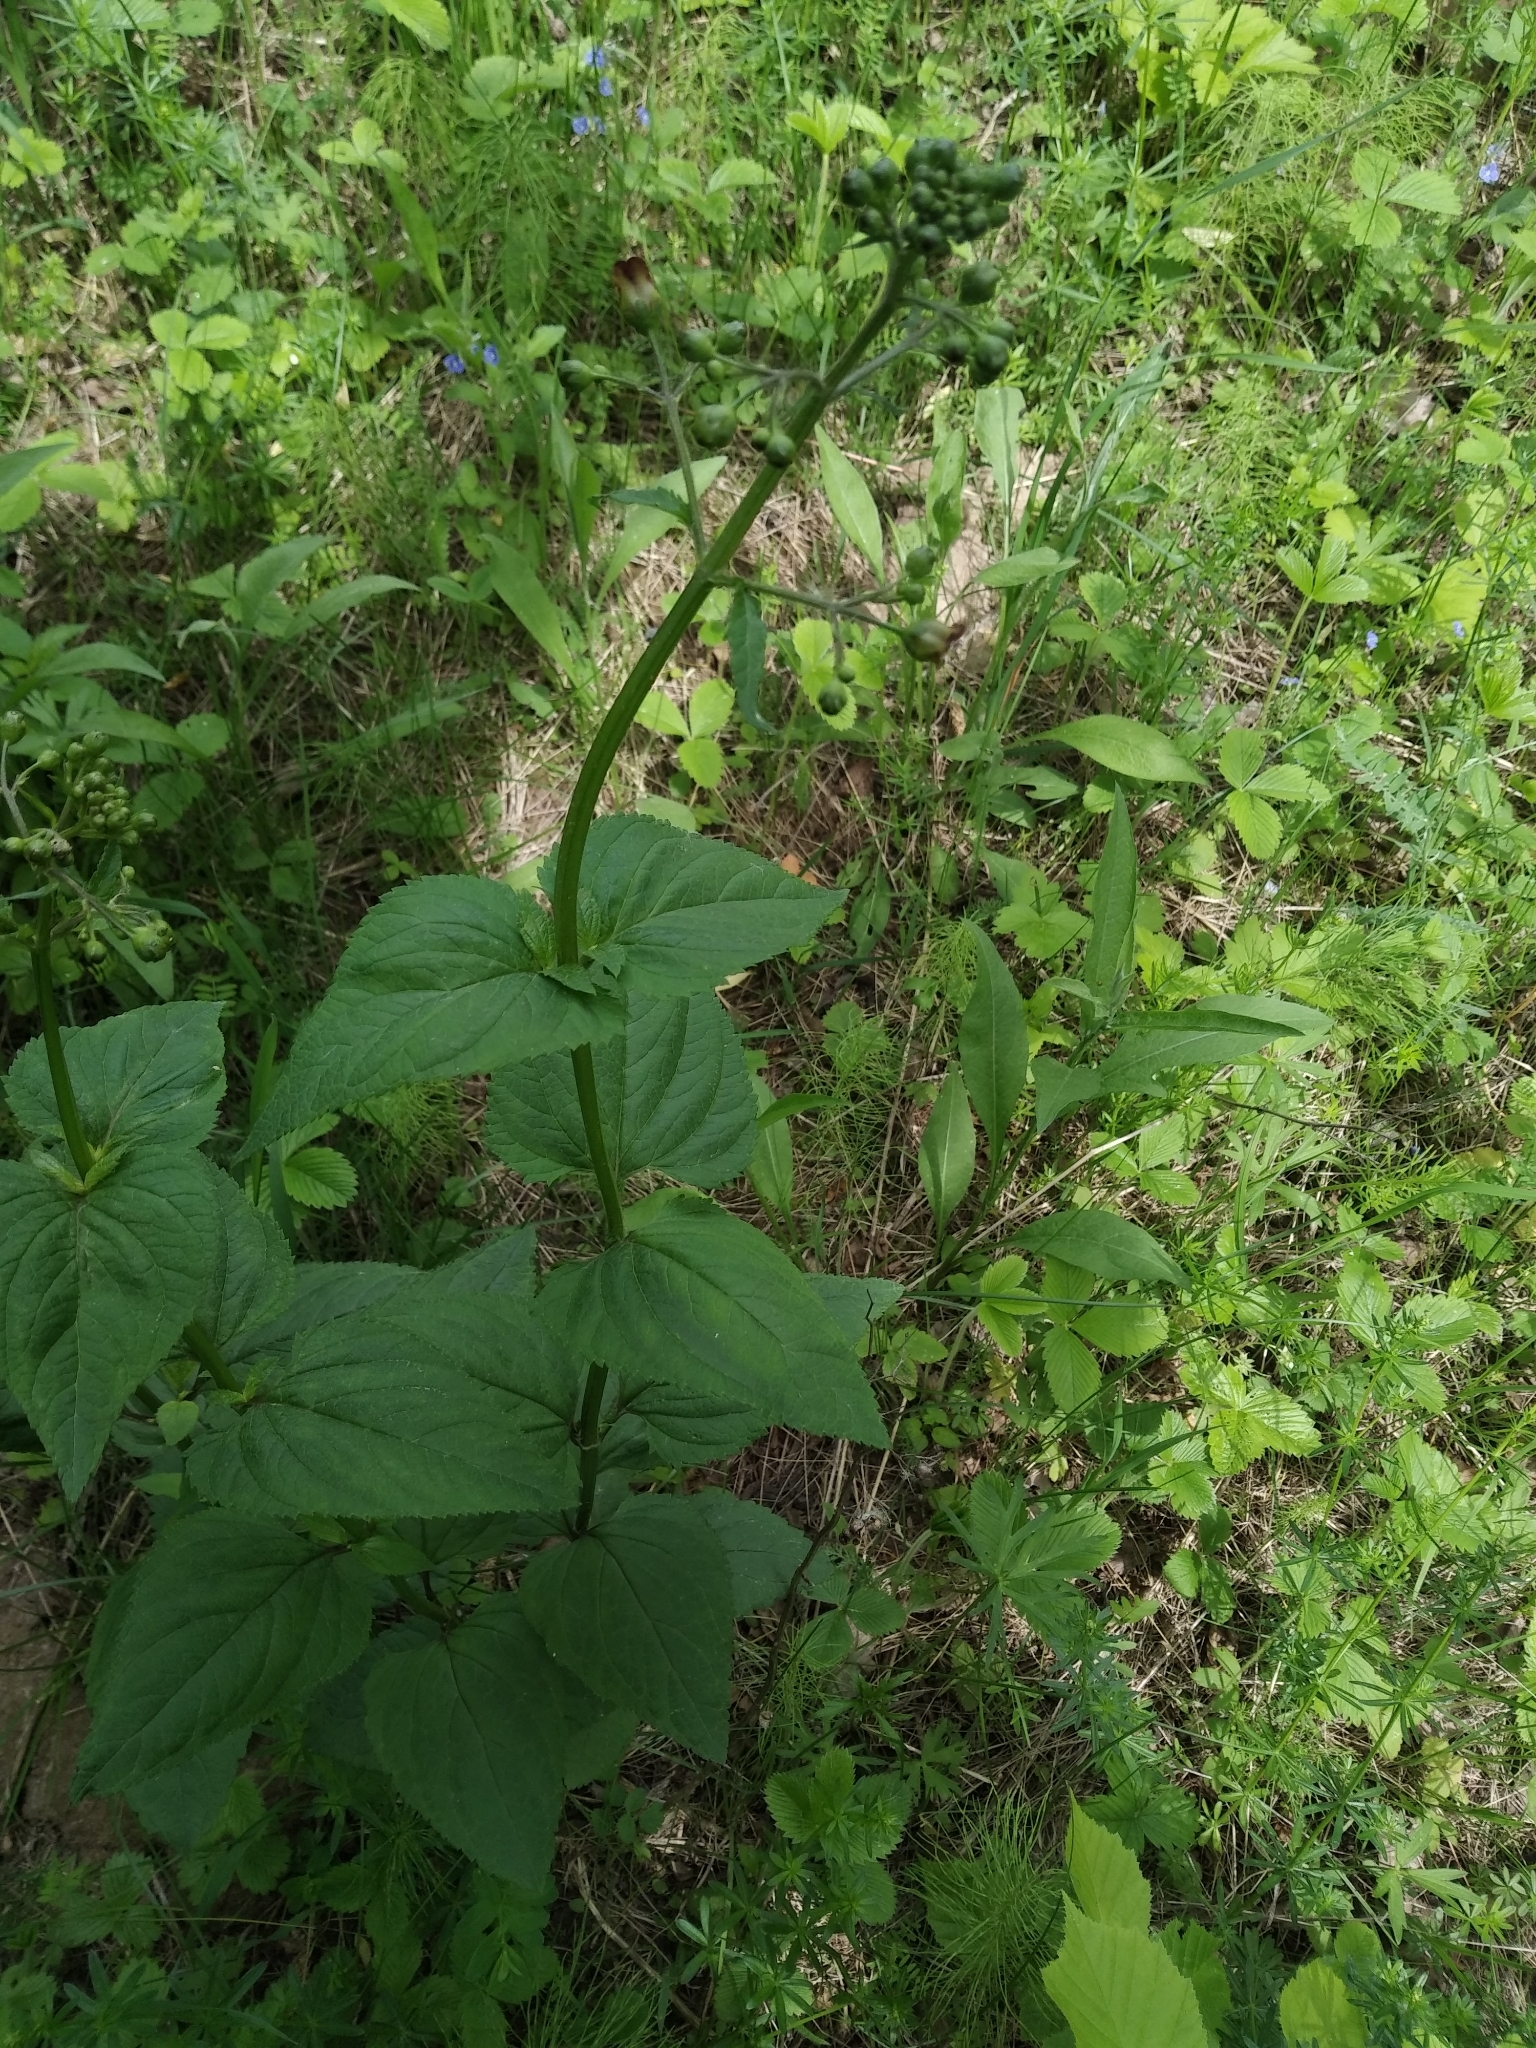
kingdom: Plantae
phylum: Tracheophyta
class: Magnoliopsida
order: Lamiales
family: Scrophulariaceae
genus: Scrophularia
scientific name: Scrophularia nodosa
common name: Common figwort
